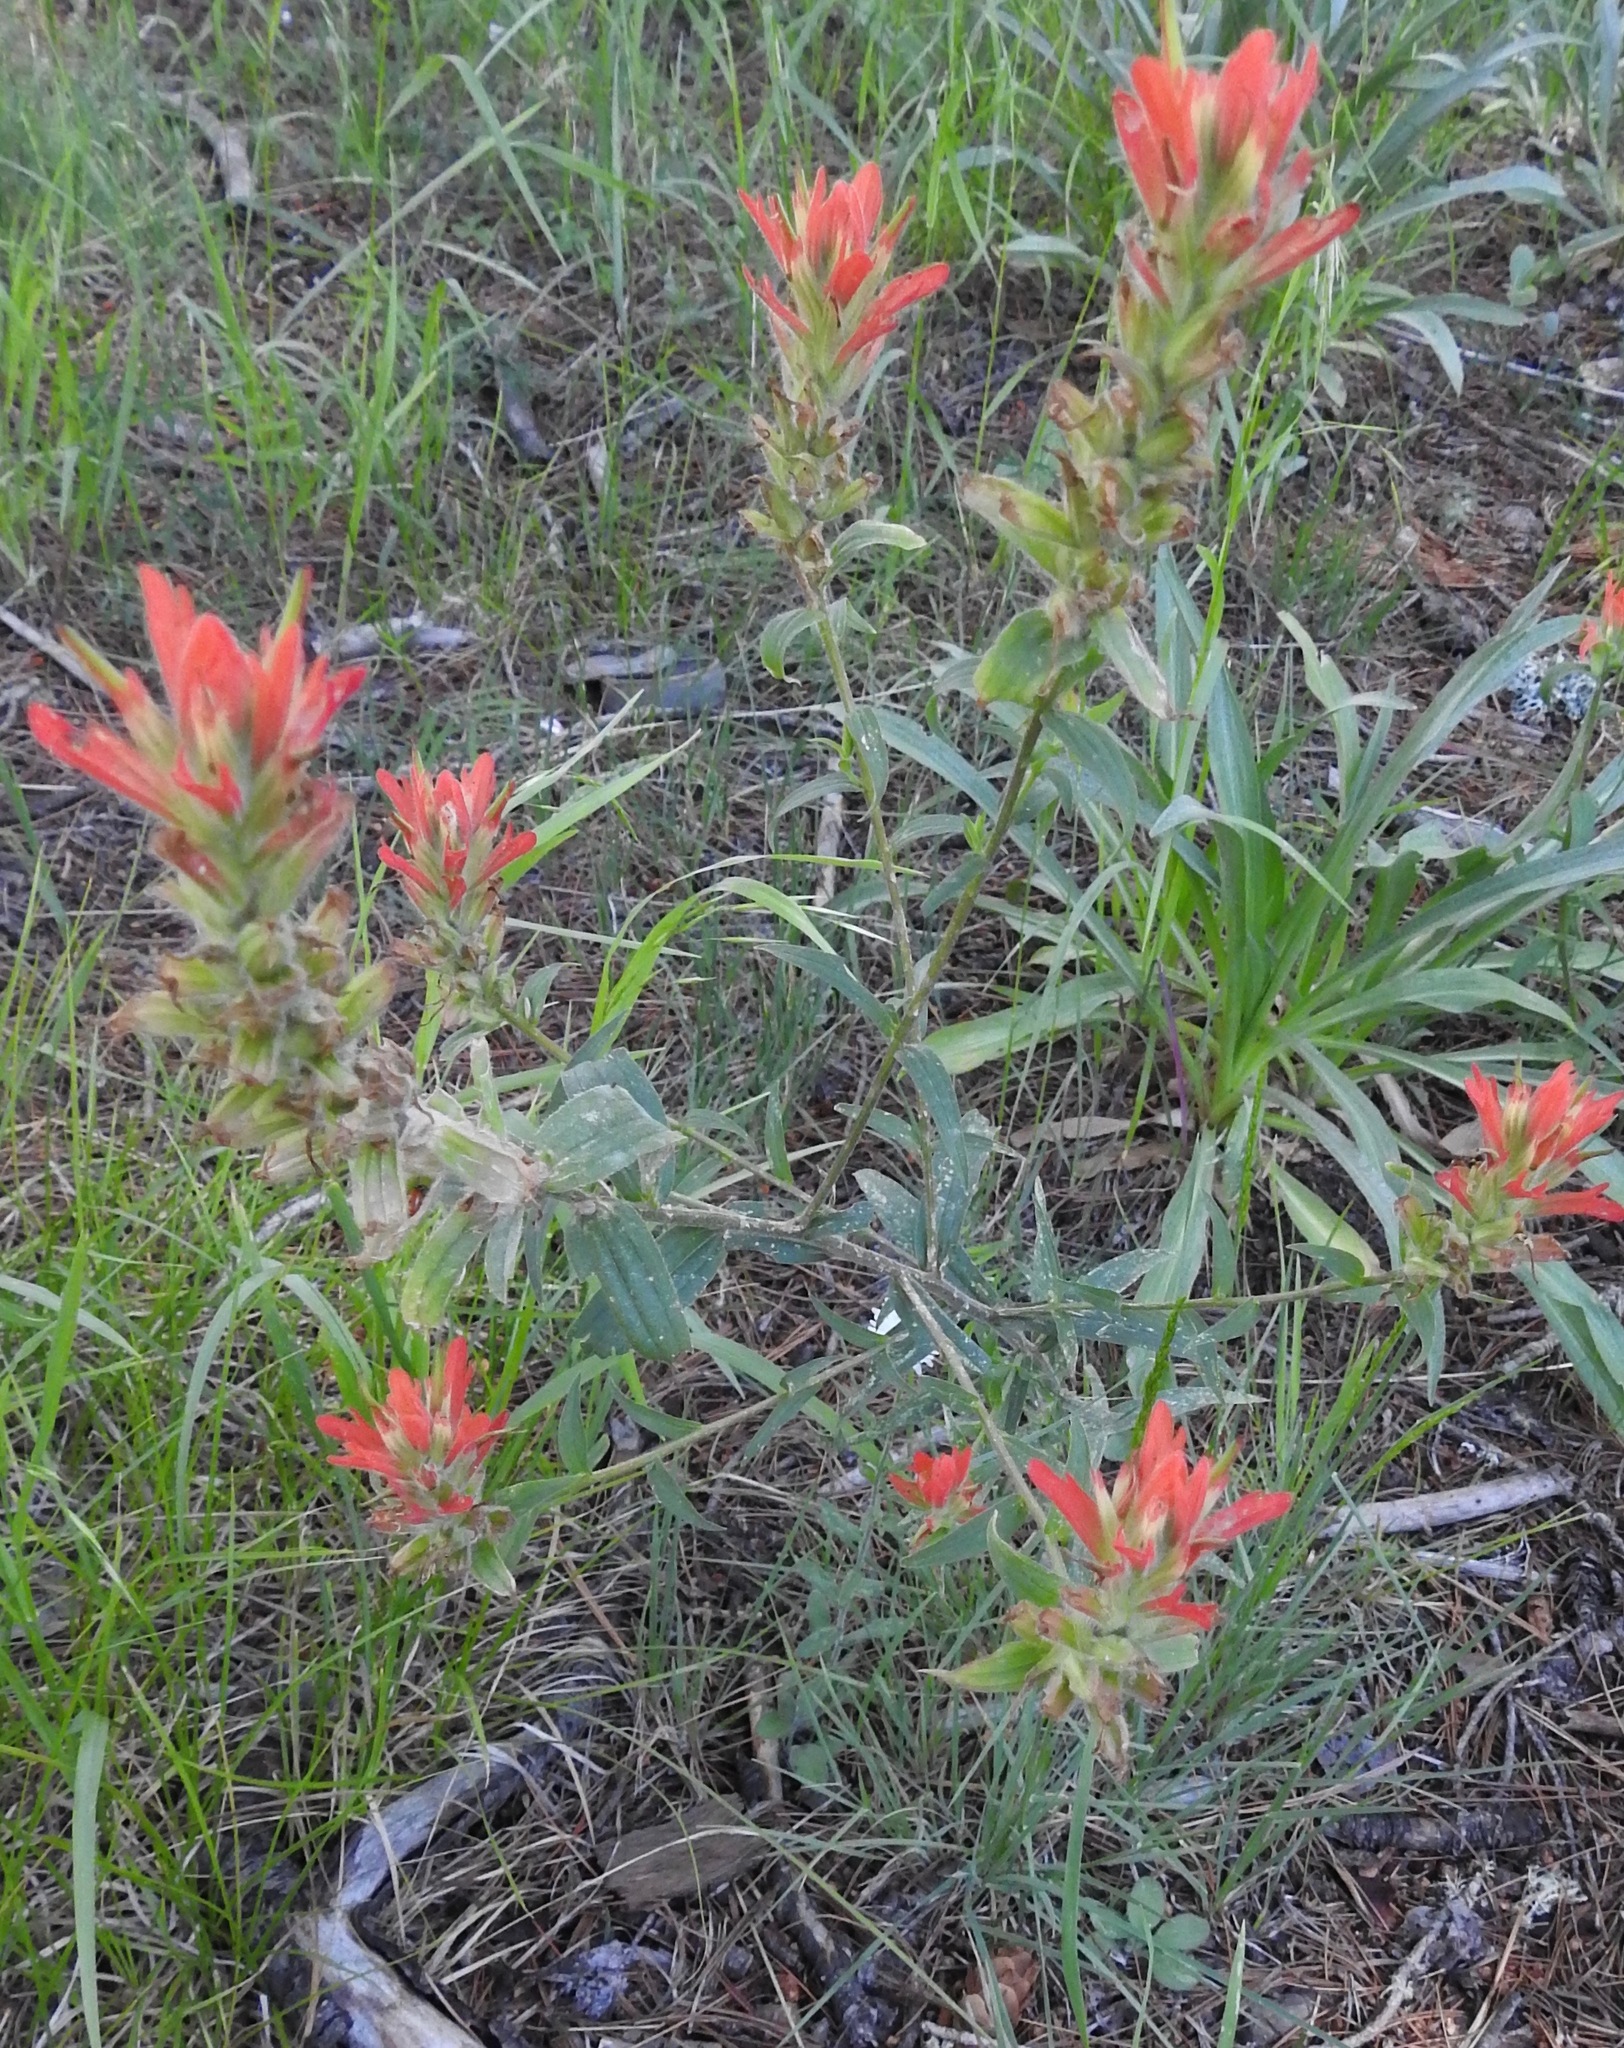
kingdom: Plantae
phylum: Tracheophyta
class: Magnoliopsida
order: Lamiales
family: Orobanchaceae
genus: Castilleja
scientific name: Castilleja nelsonii
